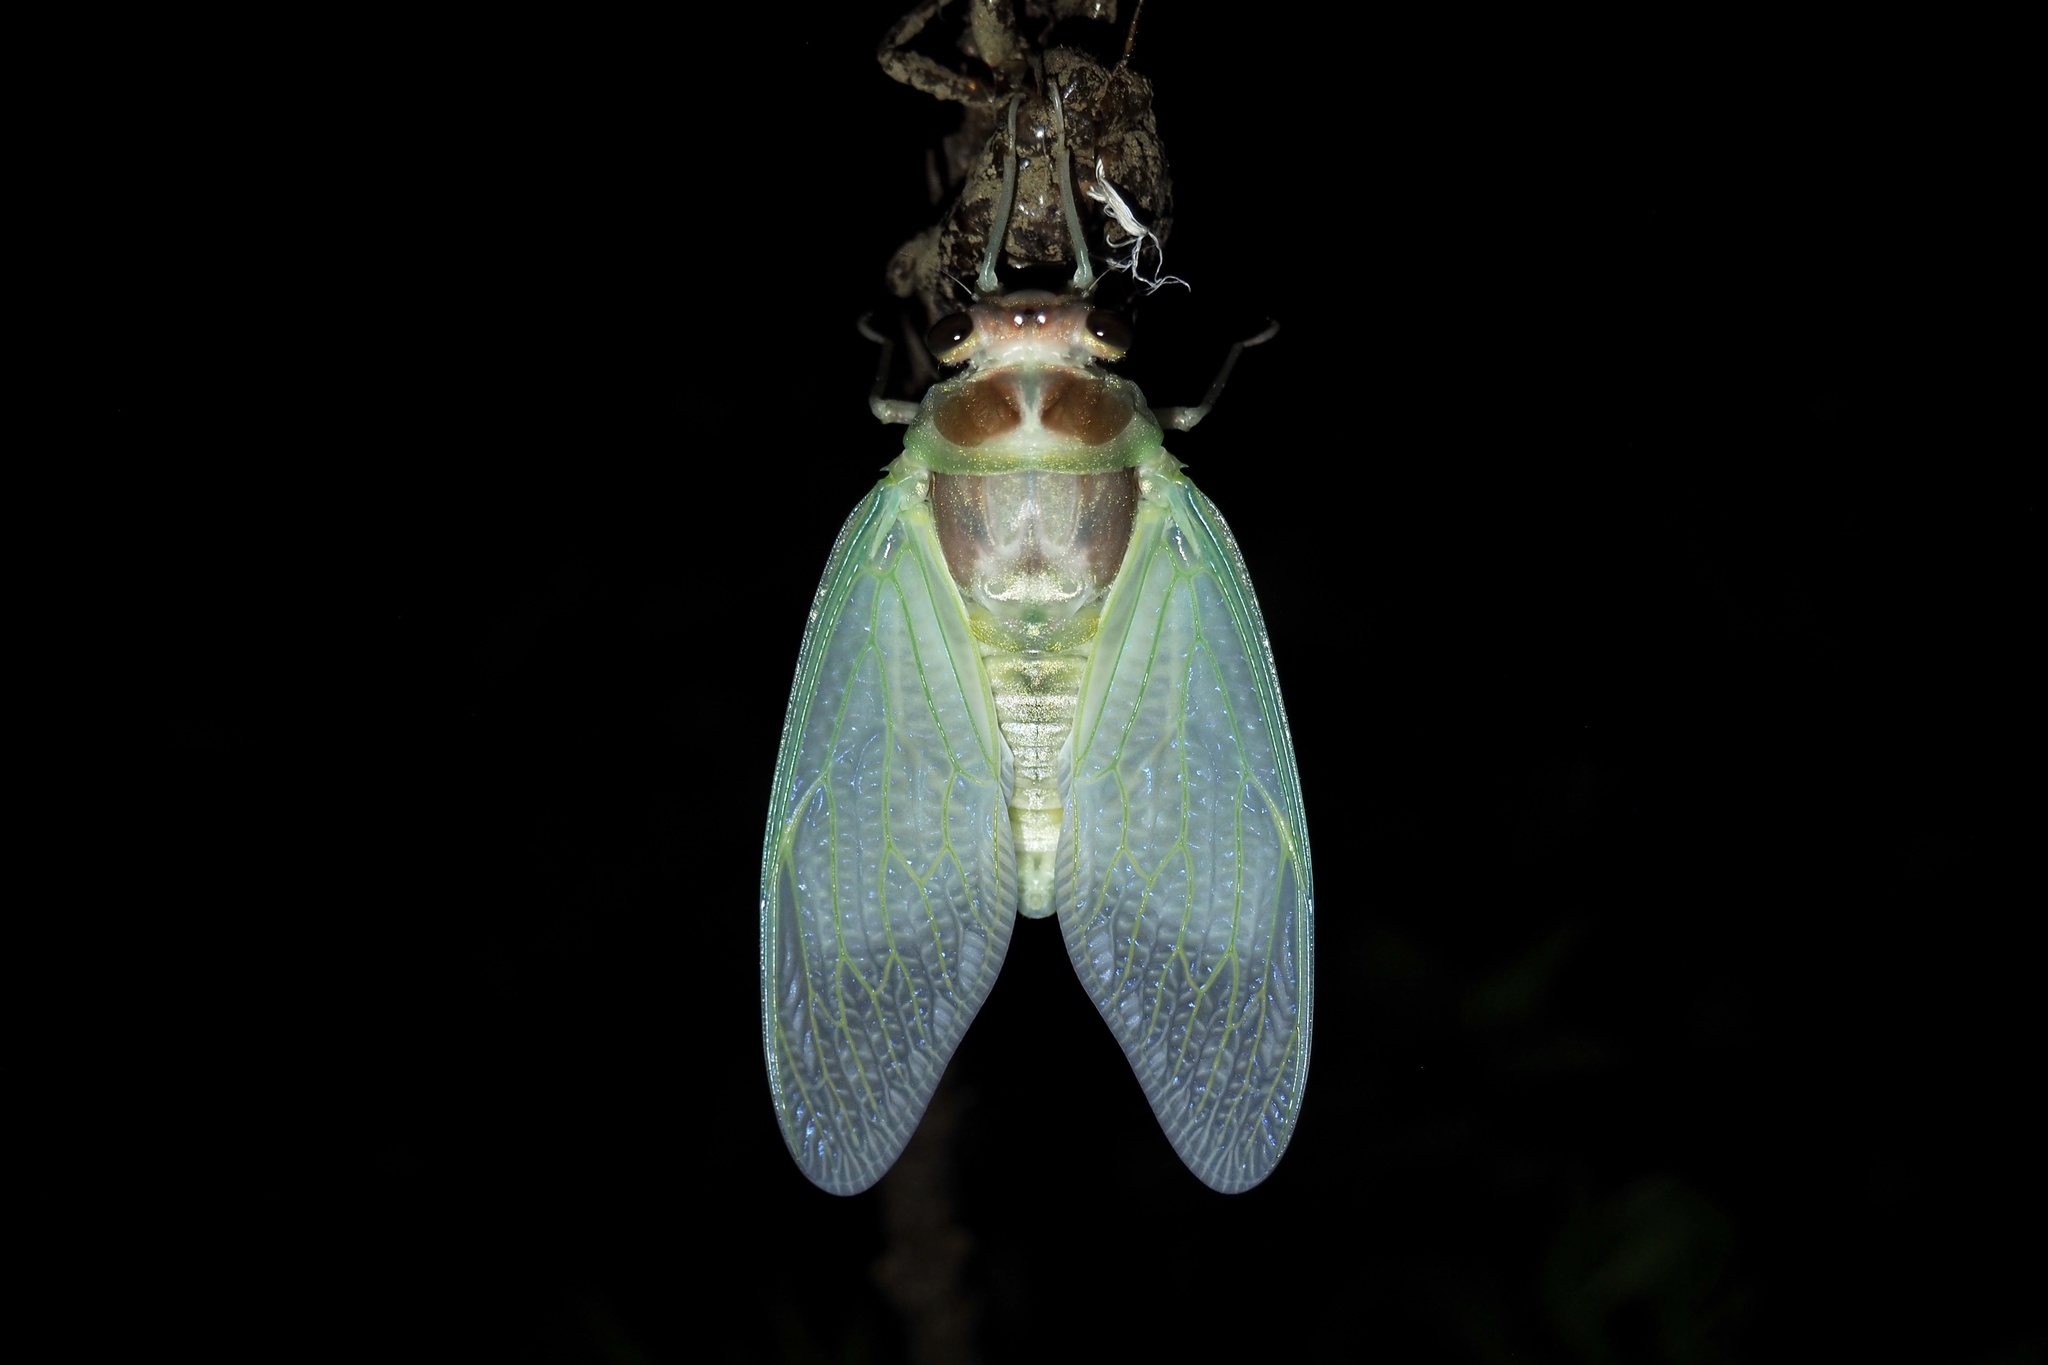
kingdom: Animalia
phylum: Arthropoda
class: Insecta
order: Hemiptera
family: Cicadidae
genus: Graptopsaltria
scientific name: Graptopsaltria nigrofuscata
